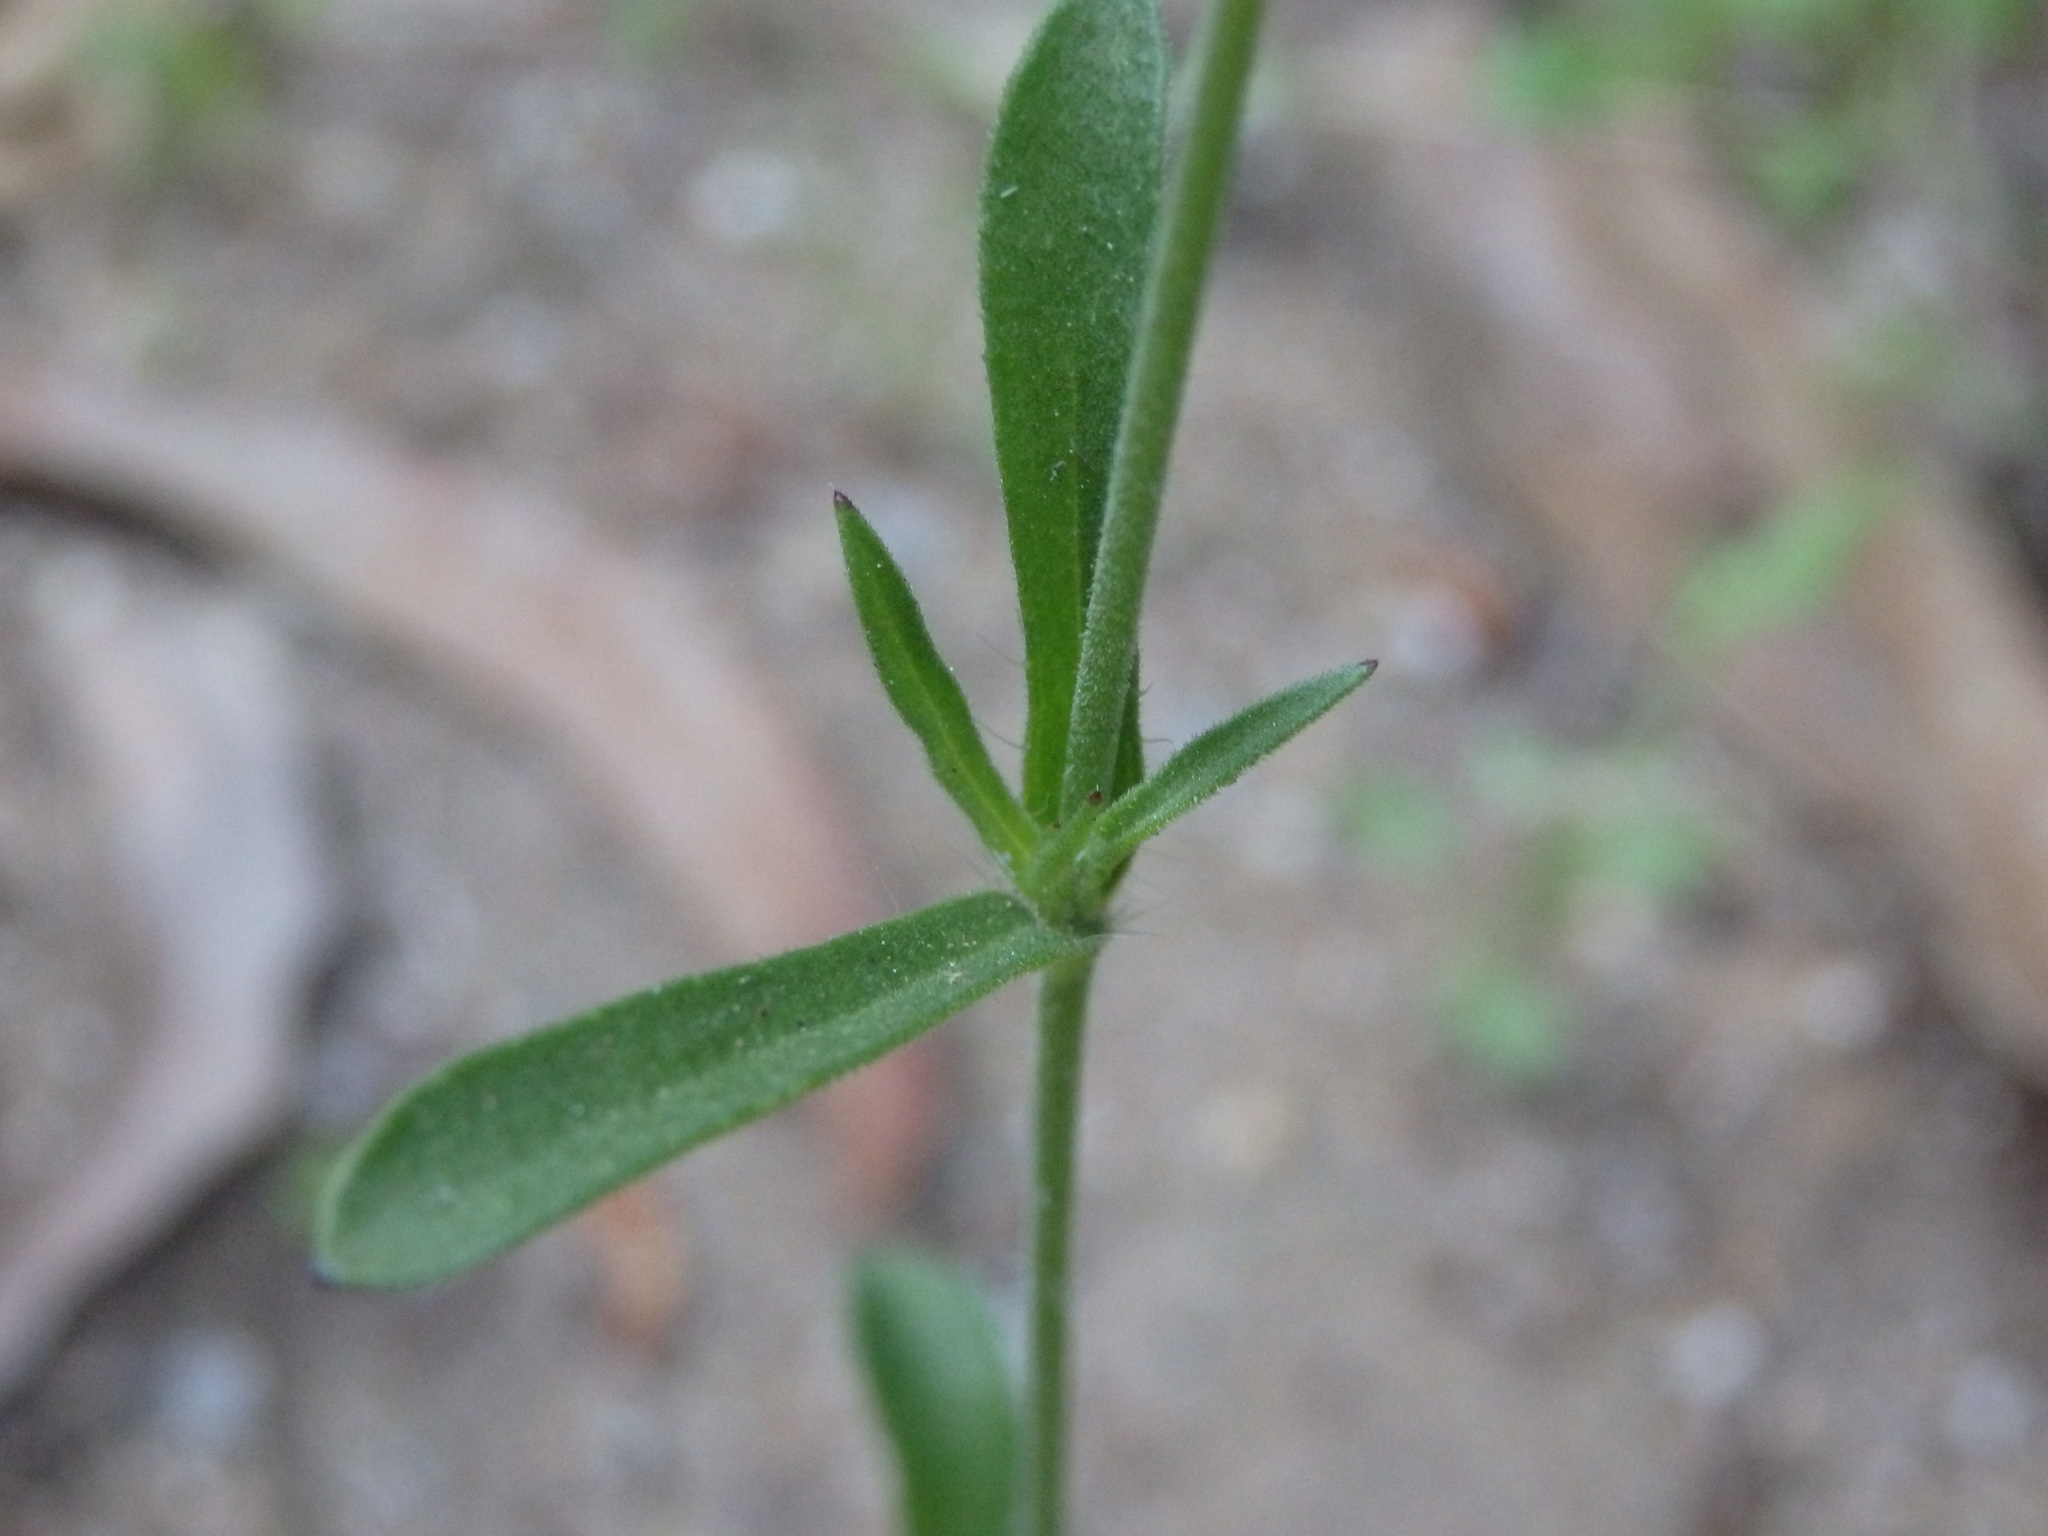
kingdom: Plantae
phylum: Tracheophyta
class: Magnoliopsida
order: Caryophyllales
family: Caryophyllaceae
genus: Silene
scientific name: Silene gallica
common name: Small-flowered catchfly
